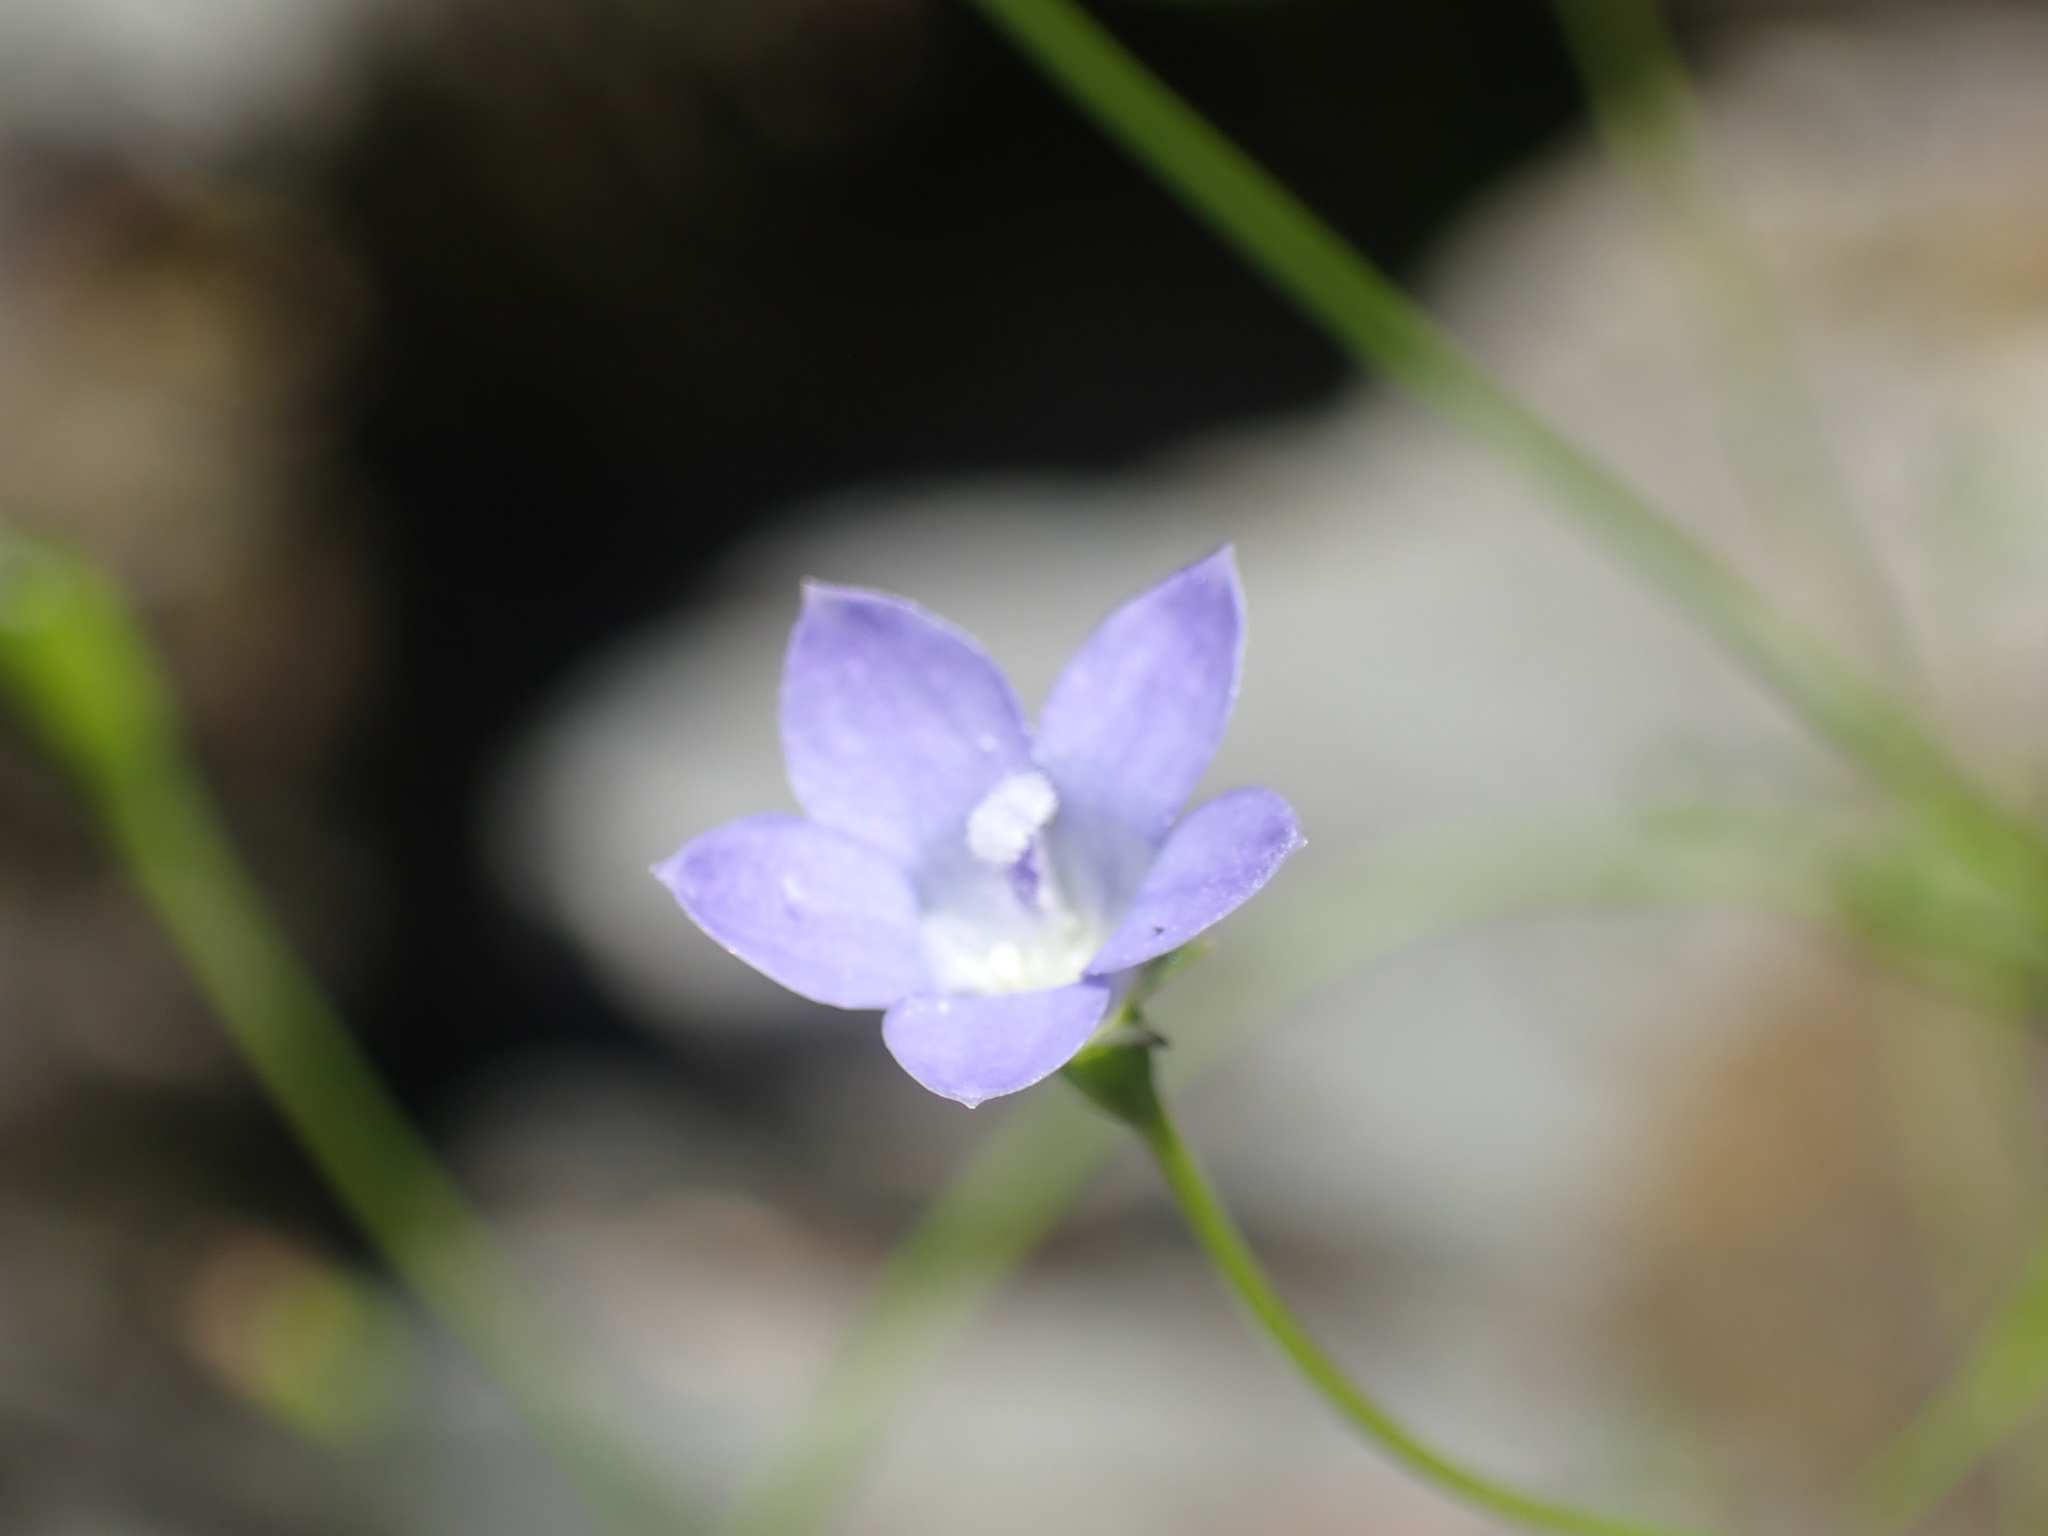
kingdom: Plantae
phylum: Tracheophyta
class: Magnoliopsida
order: Asterales
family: Campanulaceae
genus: Wahlenbergia
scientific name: Wahlenbergia violacea
